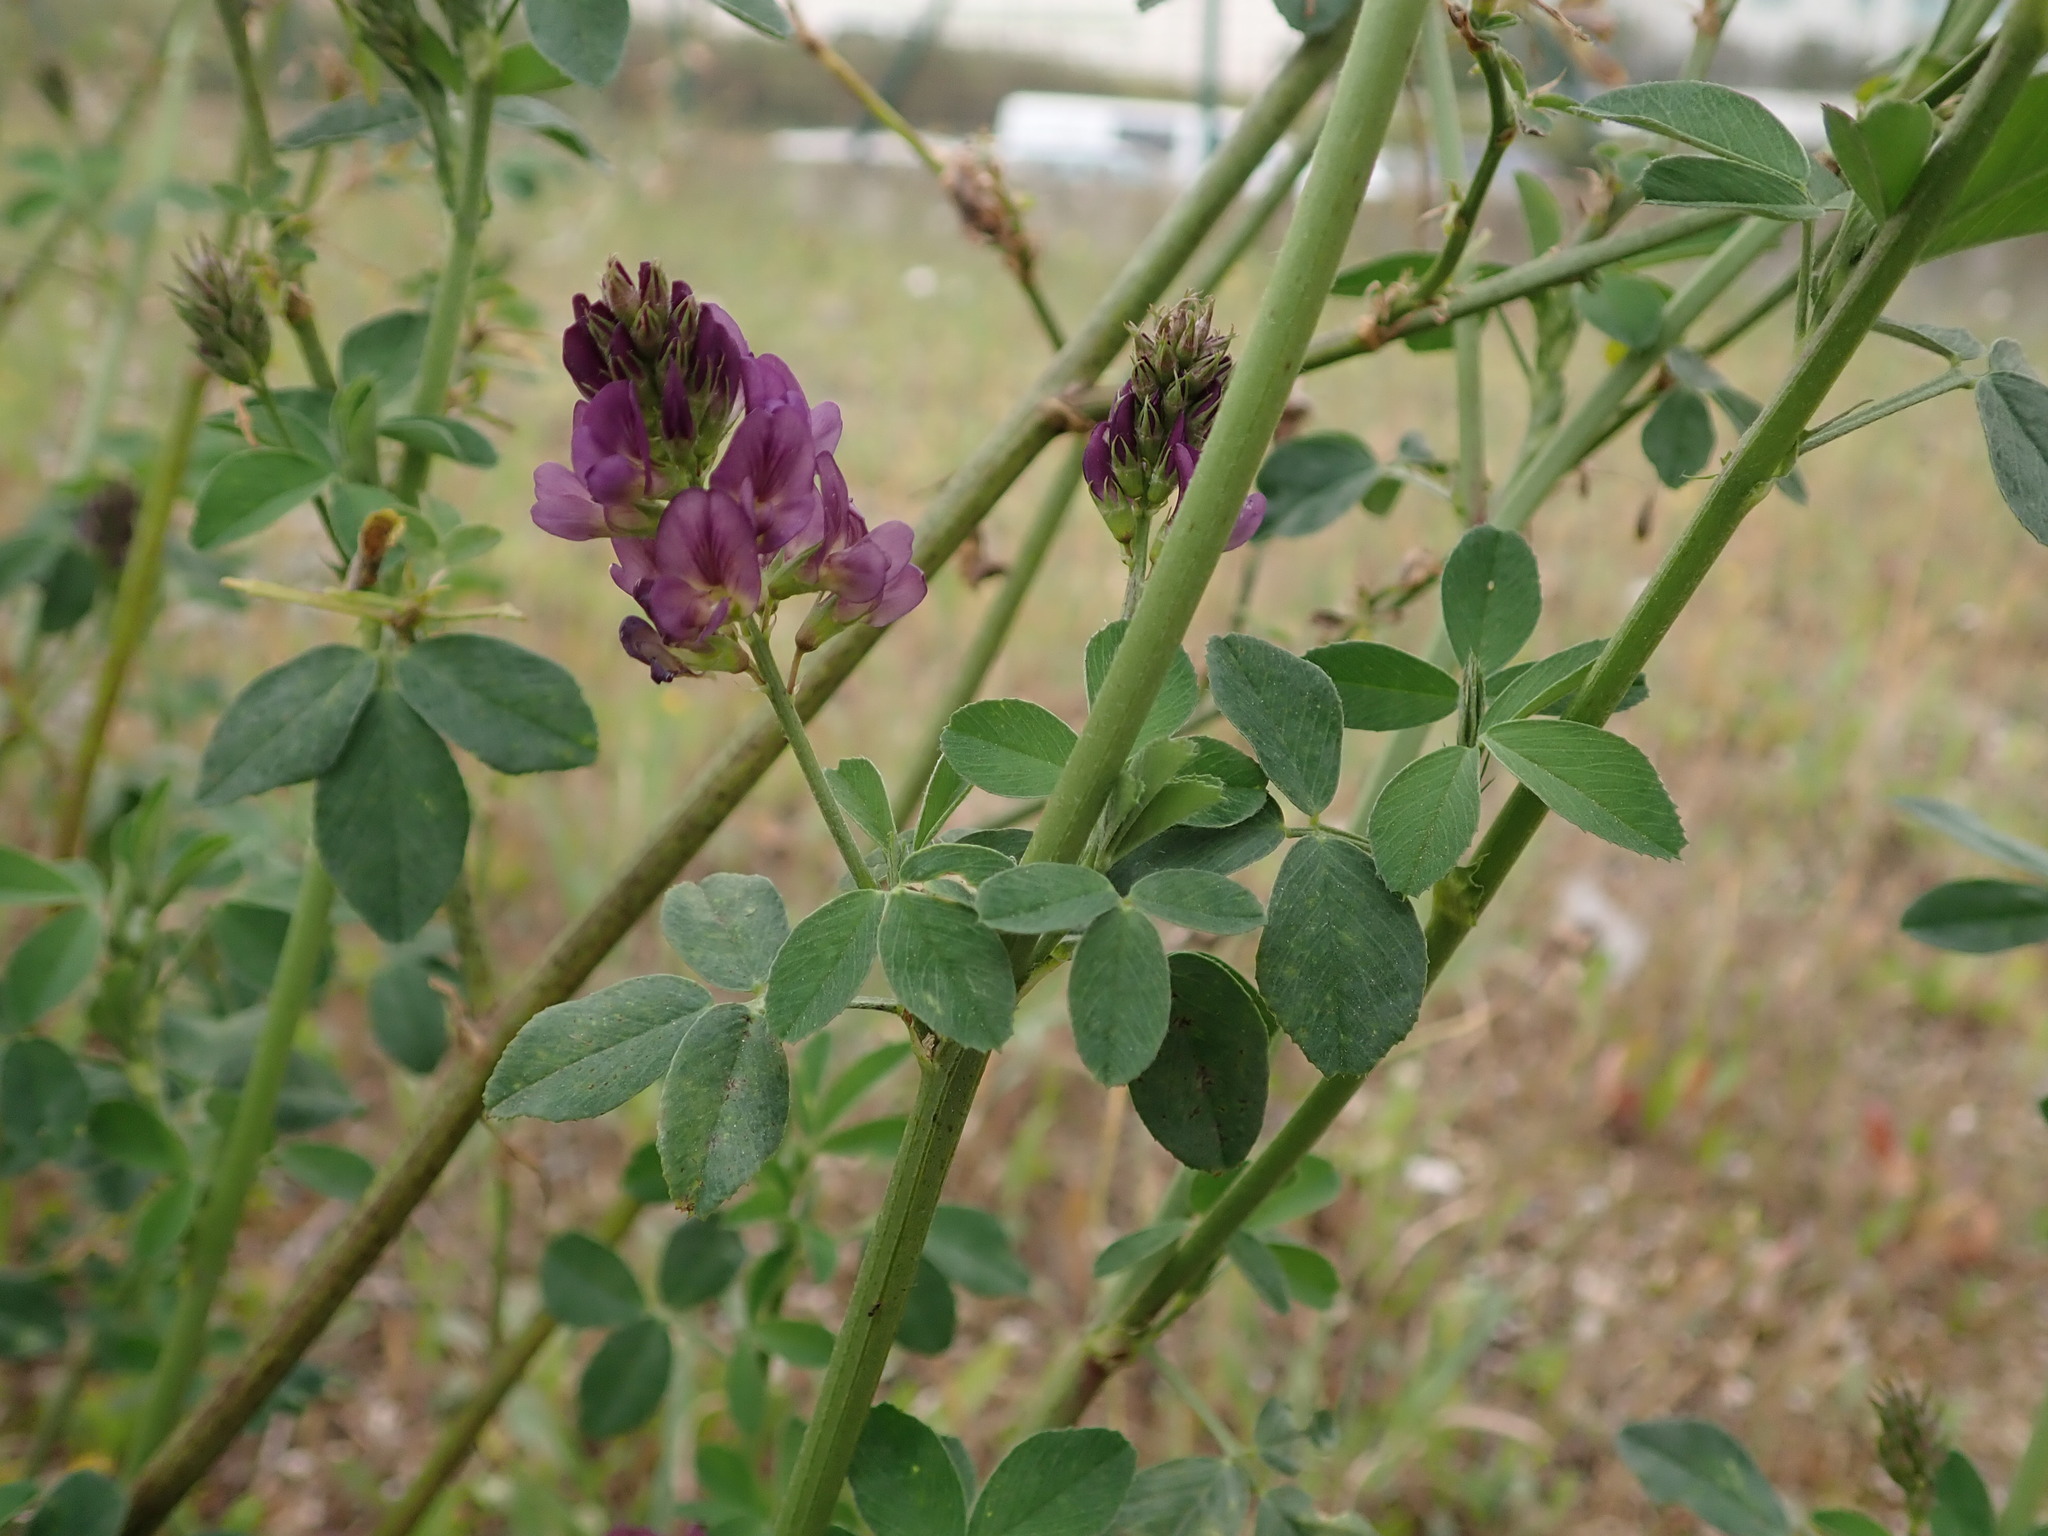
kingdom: Plantae
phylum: Tracheophyta
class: Magnoliopsida
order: Fabales
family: Fabaceae
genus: Medicago
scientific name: Medicago sativa
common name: Alfalfa
